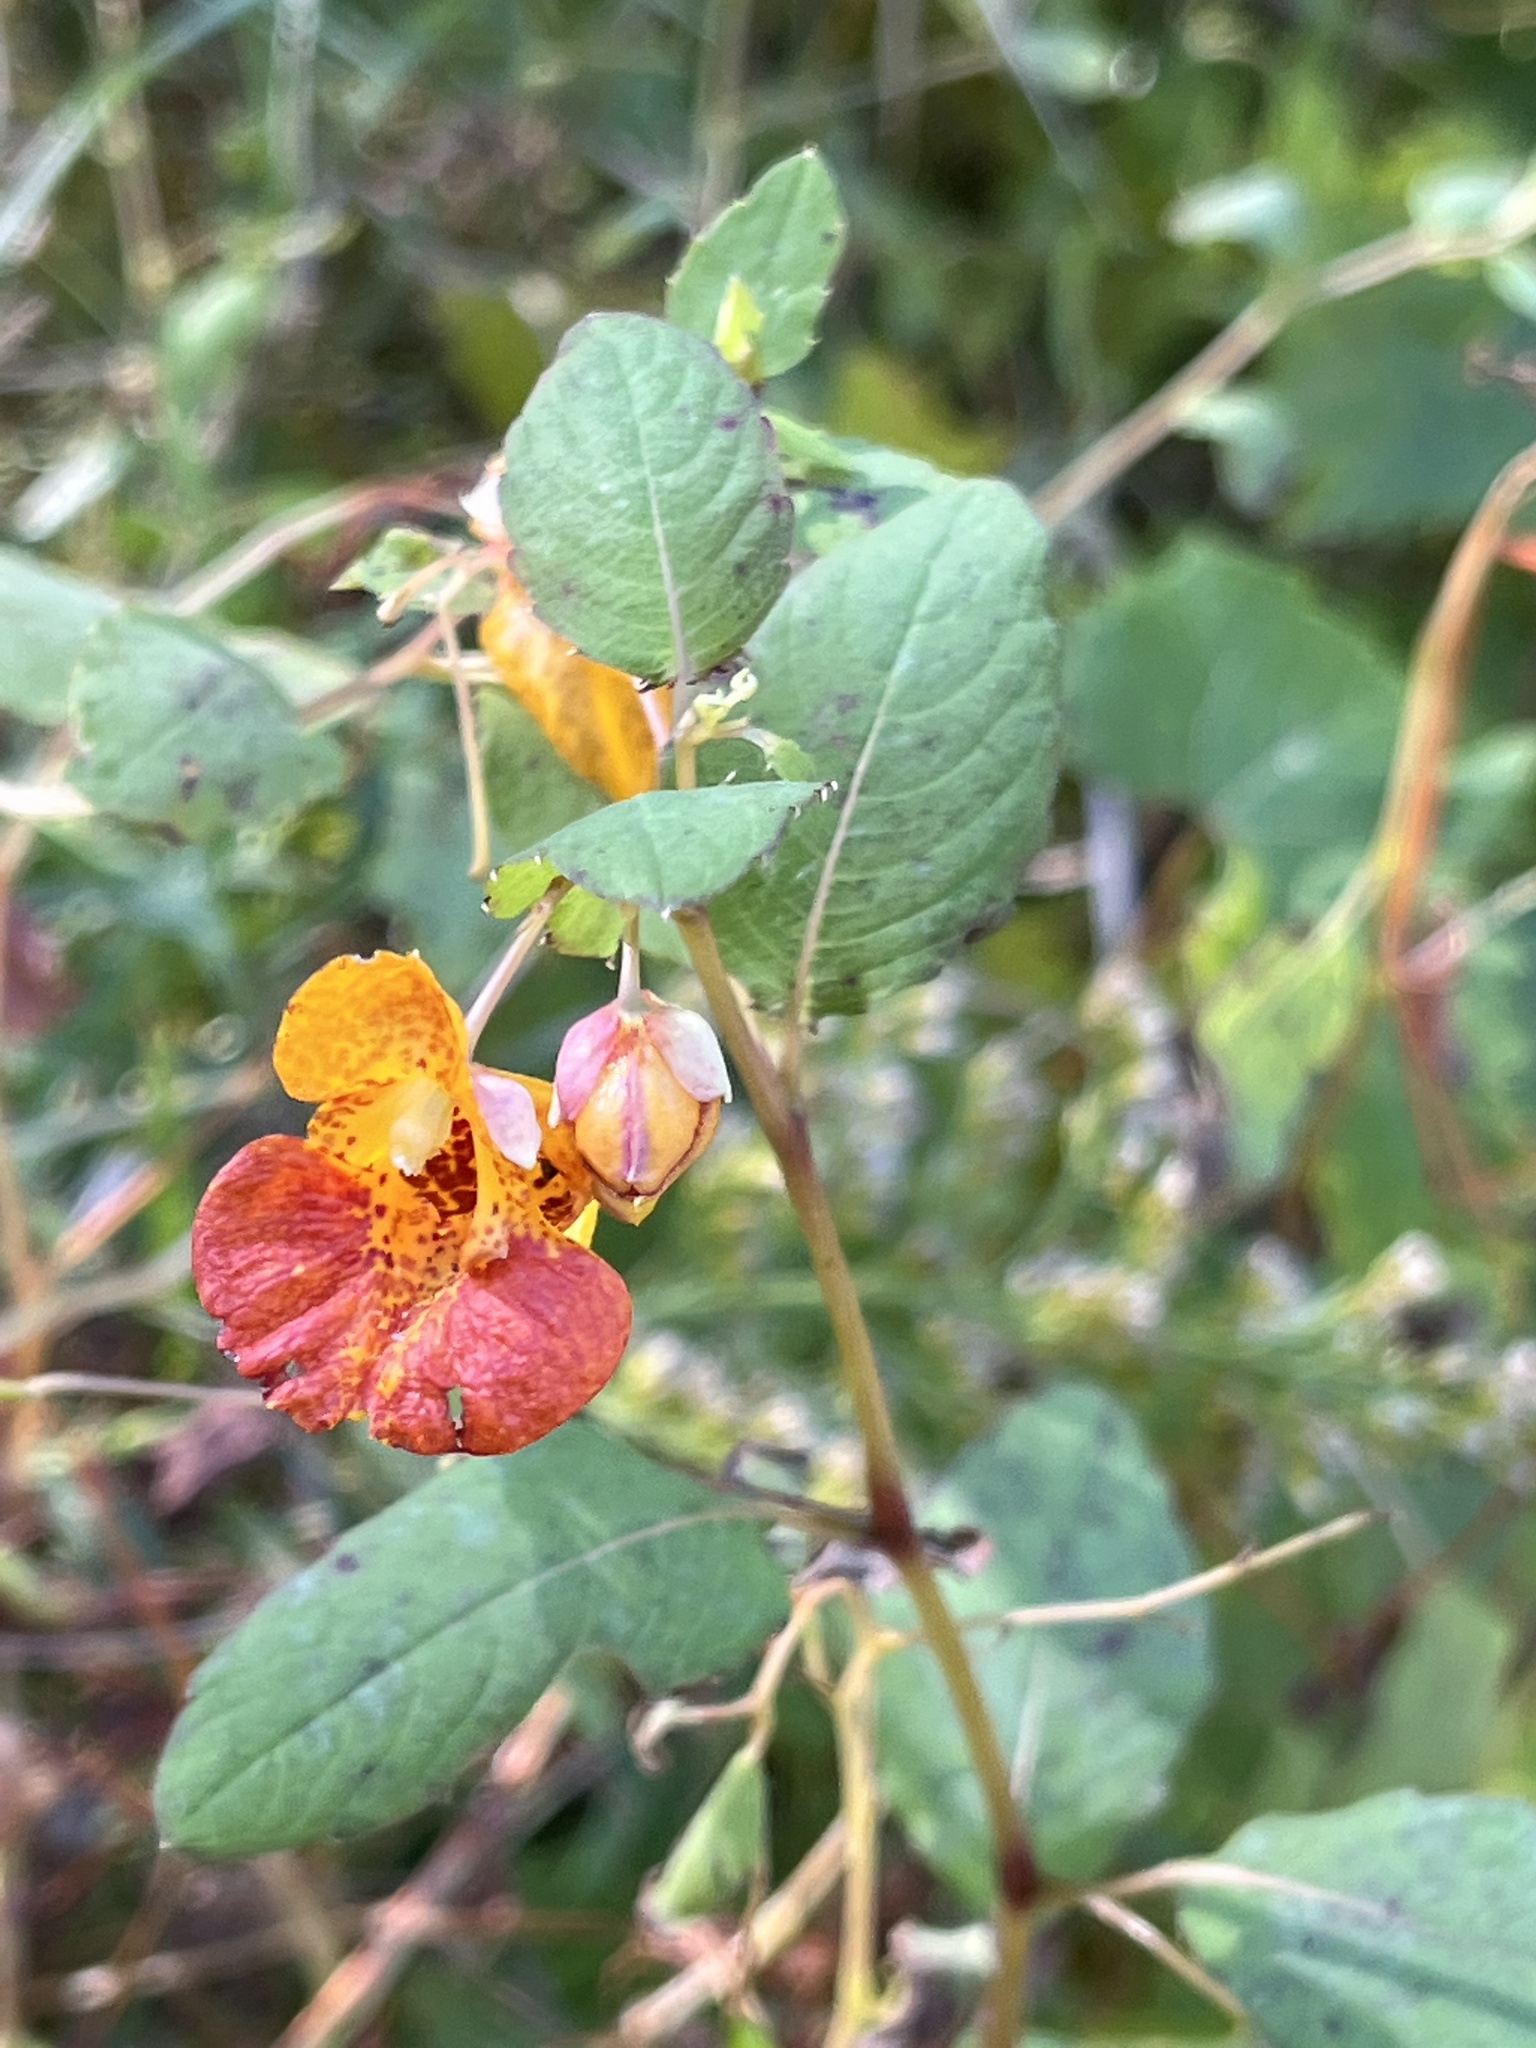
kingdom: Plantae
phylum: Tracheophyta
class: Magnoliopsida
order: Ericales
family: Balsaminaceae
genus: Impatiens
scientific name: Impatiens capensis
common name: Orange balsam
